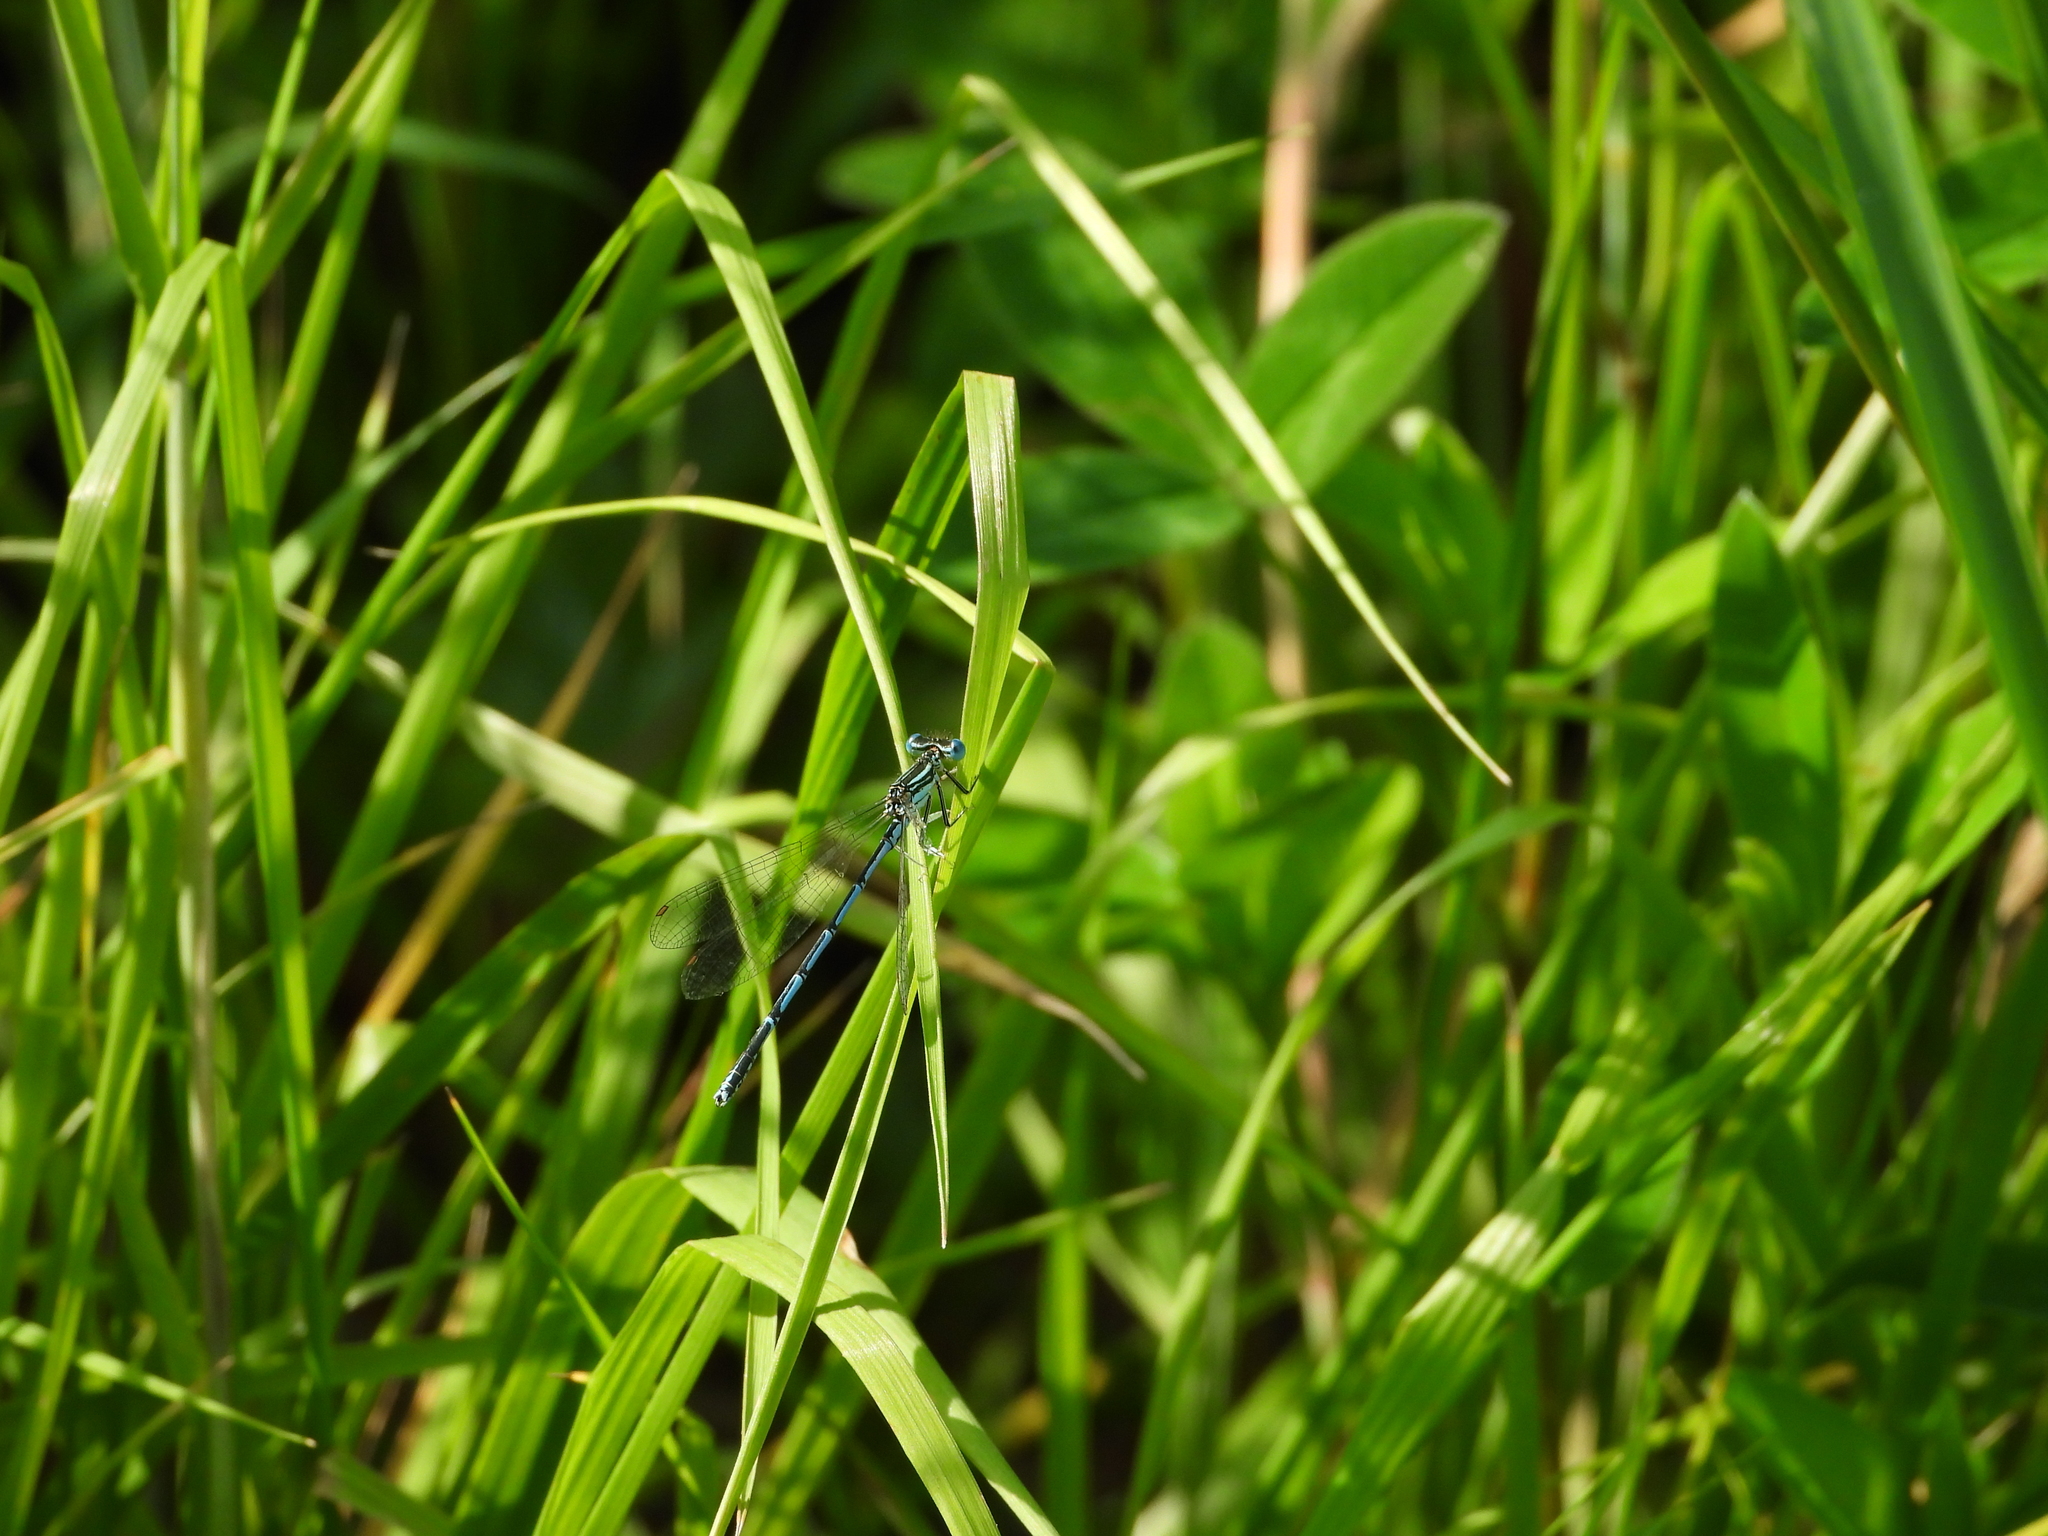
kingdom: Animalia
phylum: Arthropoda
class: Insecta
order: Odonata
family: Platycnemididae
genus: Platycnemis
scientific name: Platycnemis pennipes
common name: White-legged damselfly
